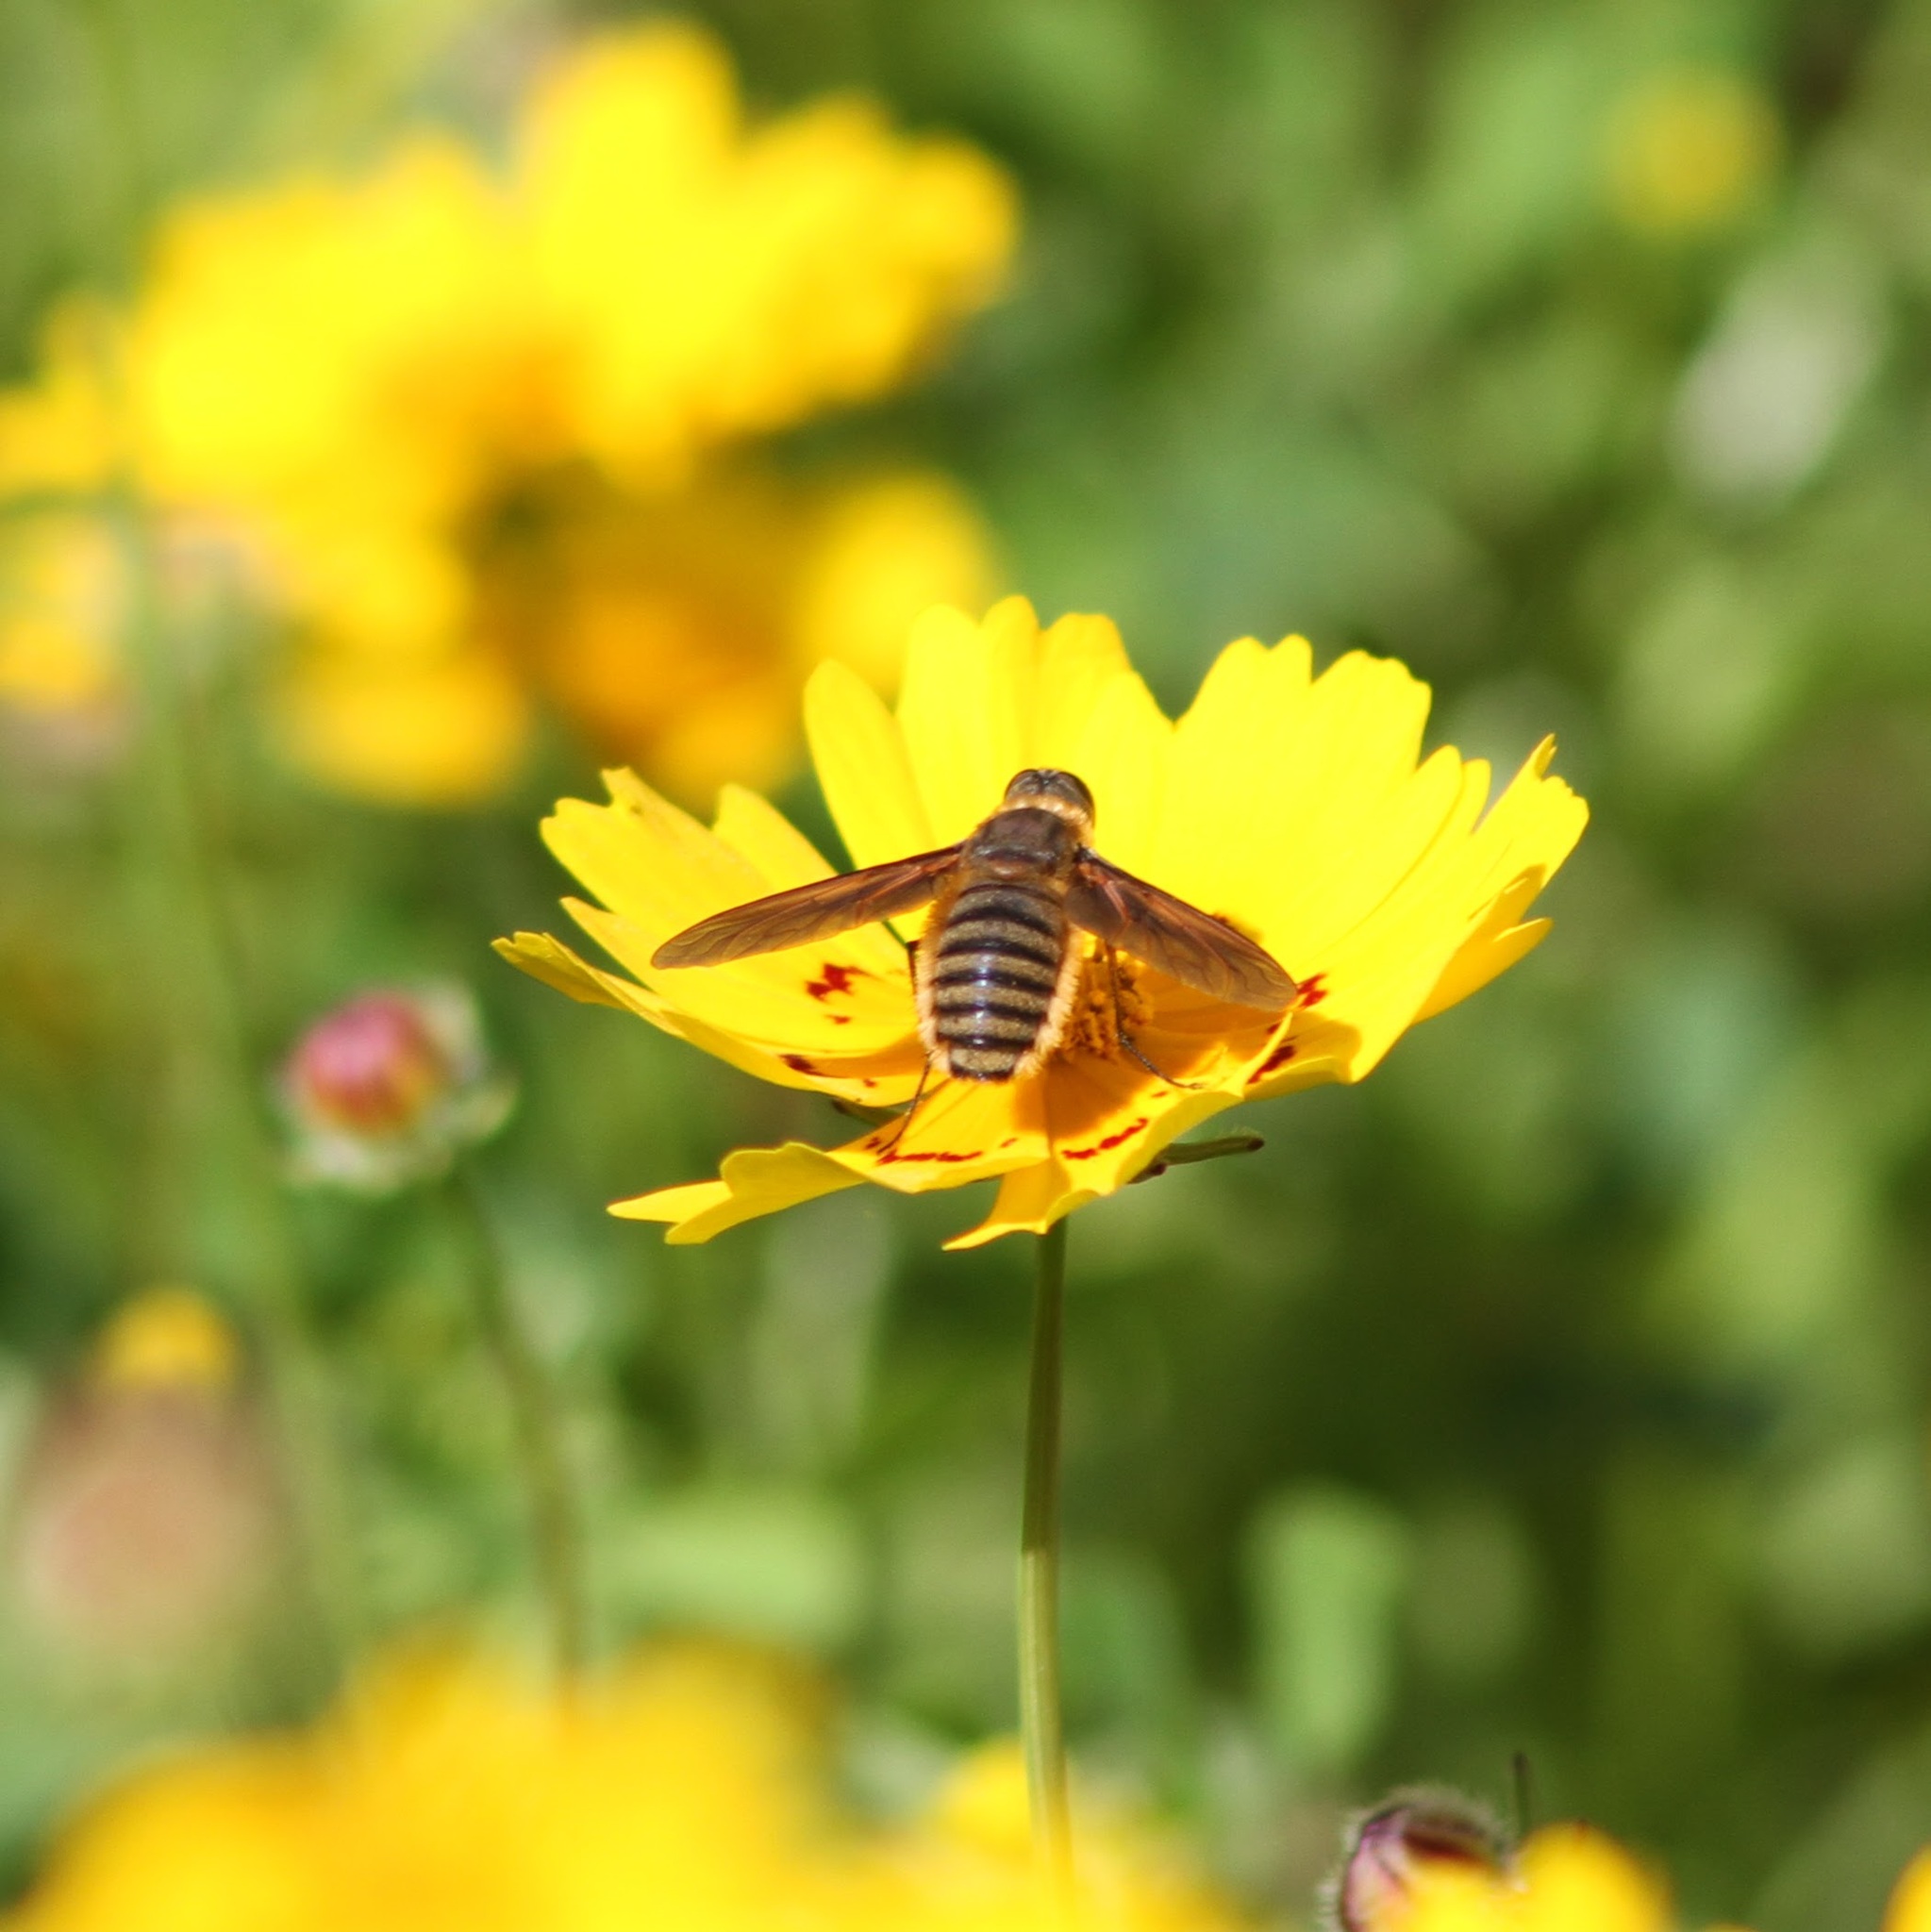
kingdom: Animalia
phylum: Arthropoda
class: Insecta
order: Diptera
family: Bombyliidae
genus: Poecilanthrax
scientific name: Poecilanthrax lucifer
